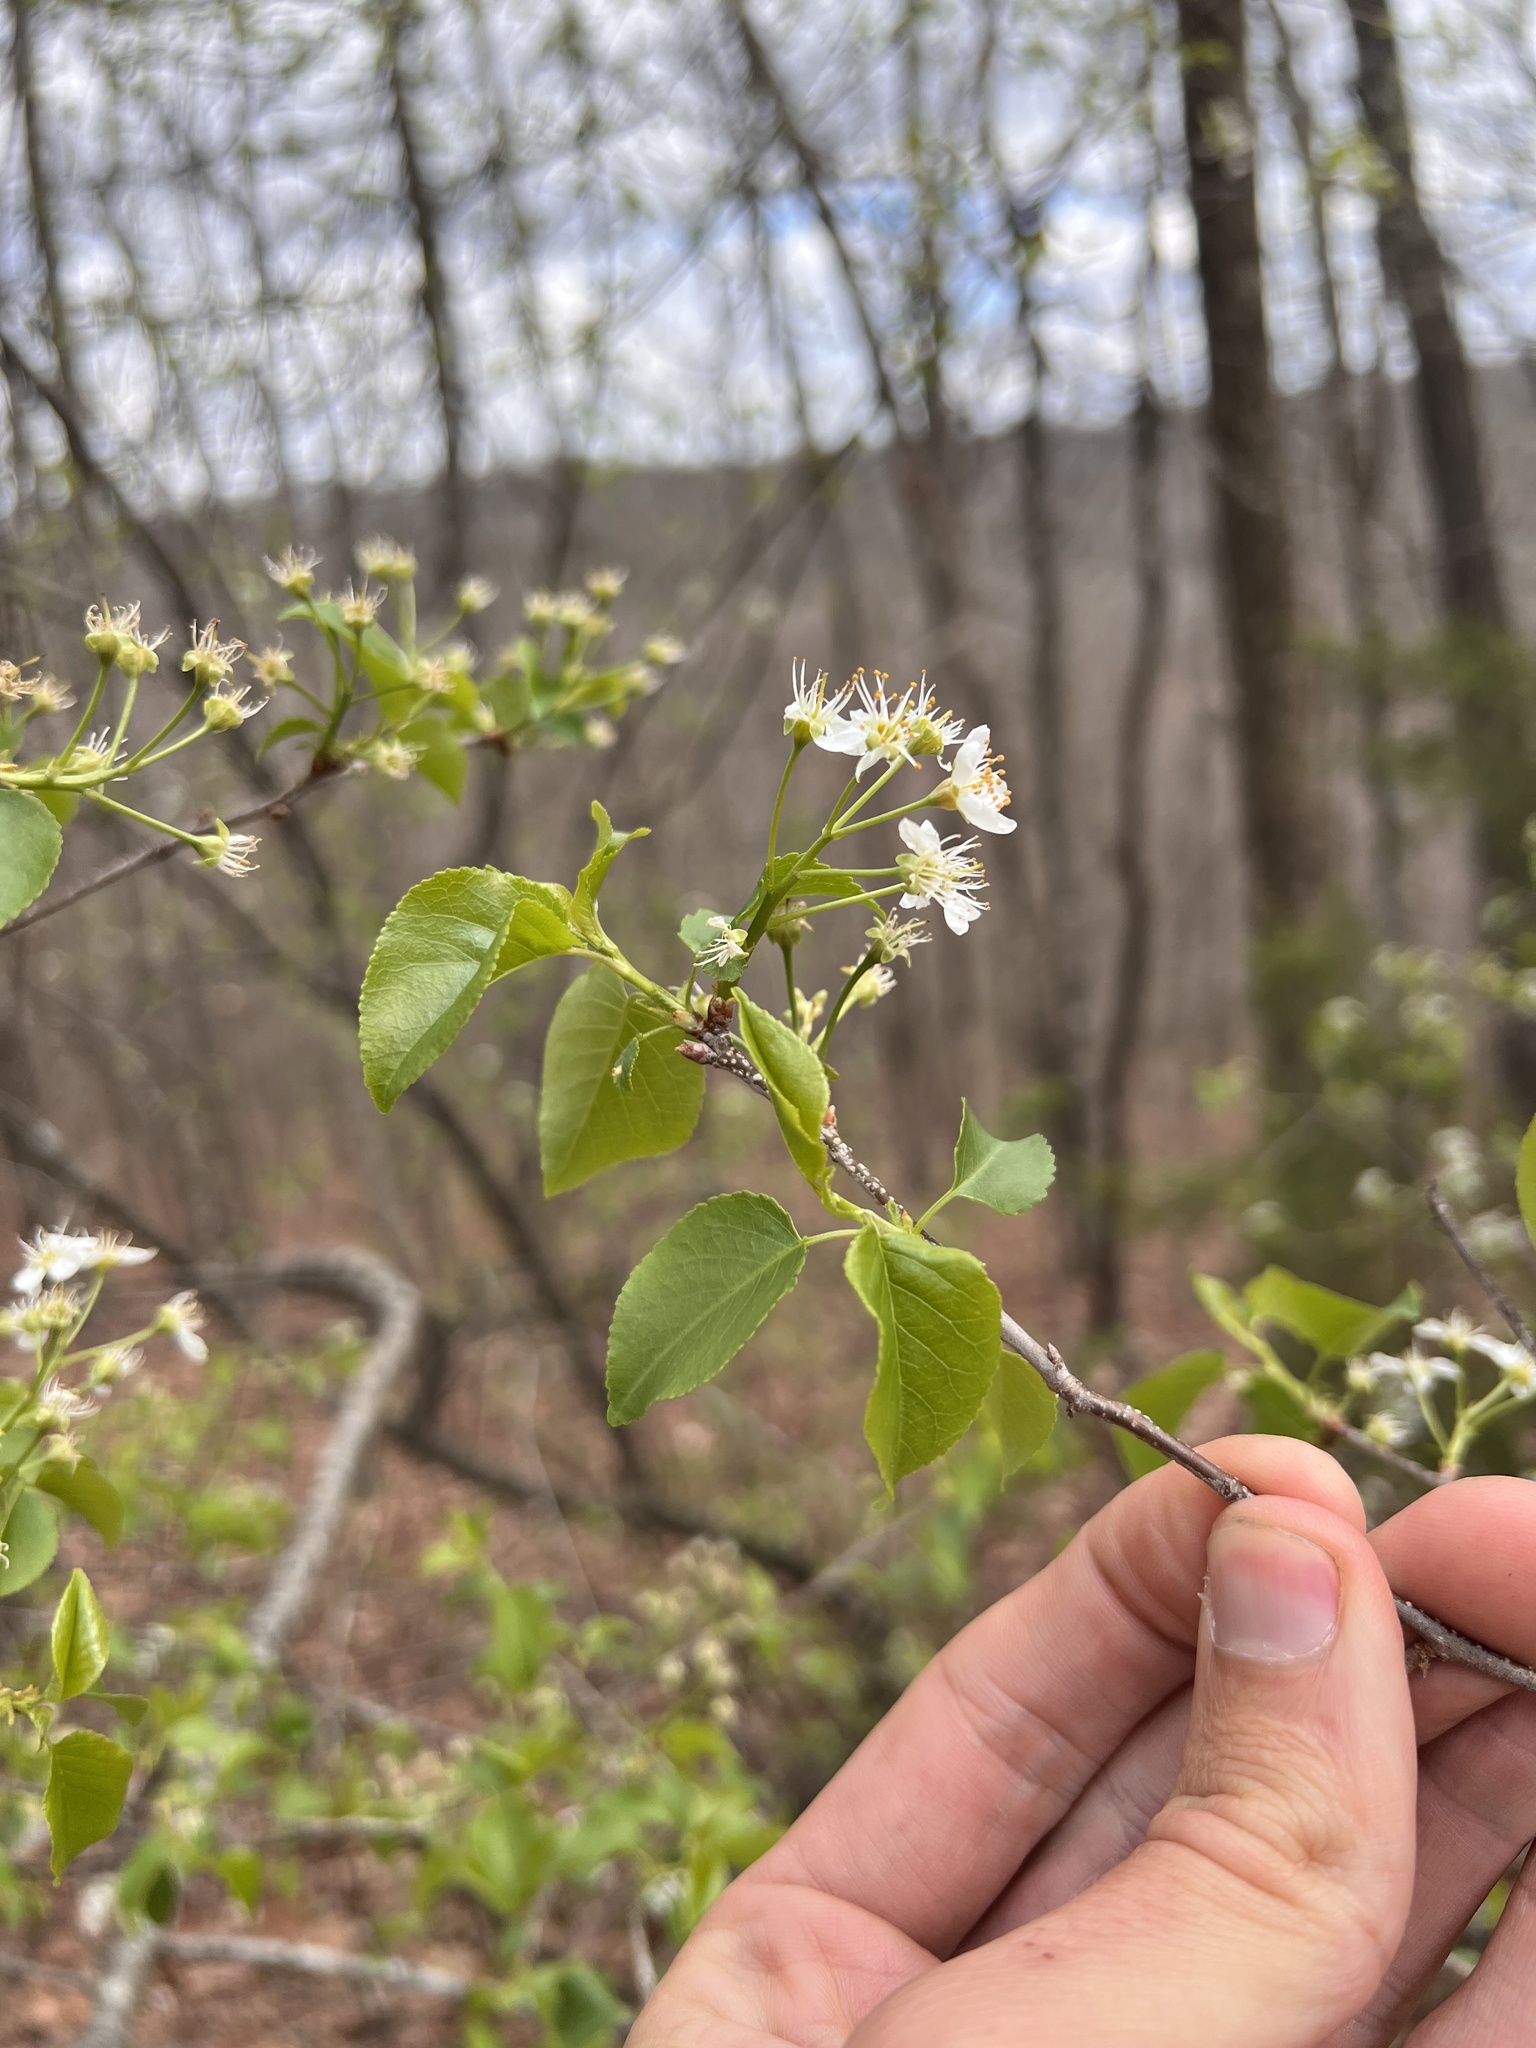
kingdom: Plantae
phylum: Tracheophyta
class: Magnoliopsida
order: Rosales
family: Rosaceae
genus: Prunus
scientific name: Prunus mahaleb
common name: Mahaleb cherry
